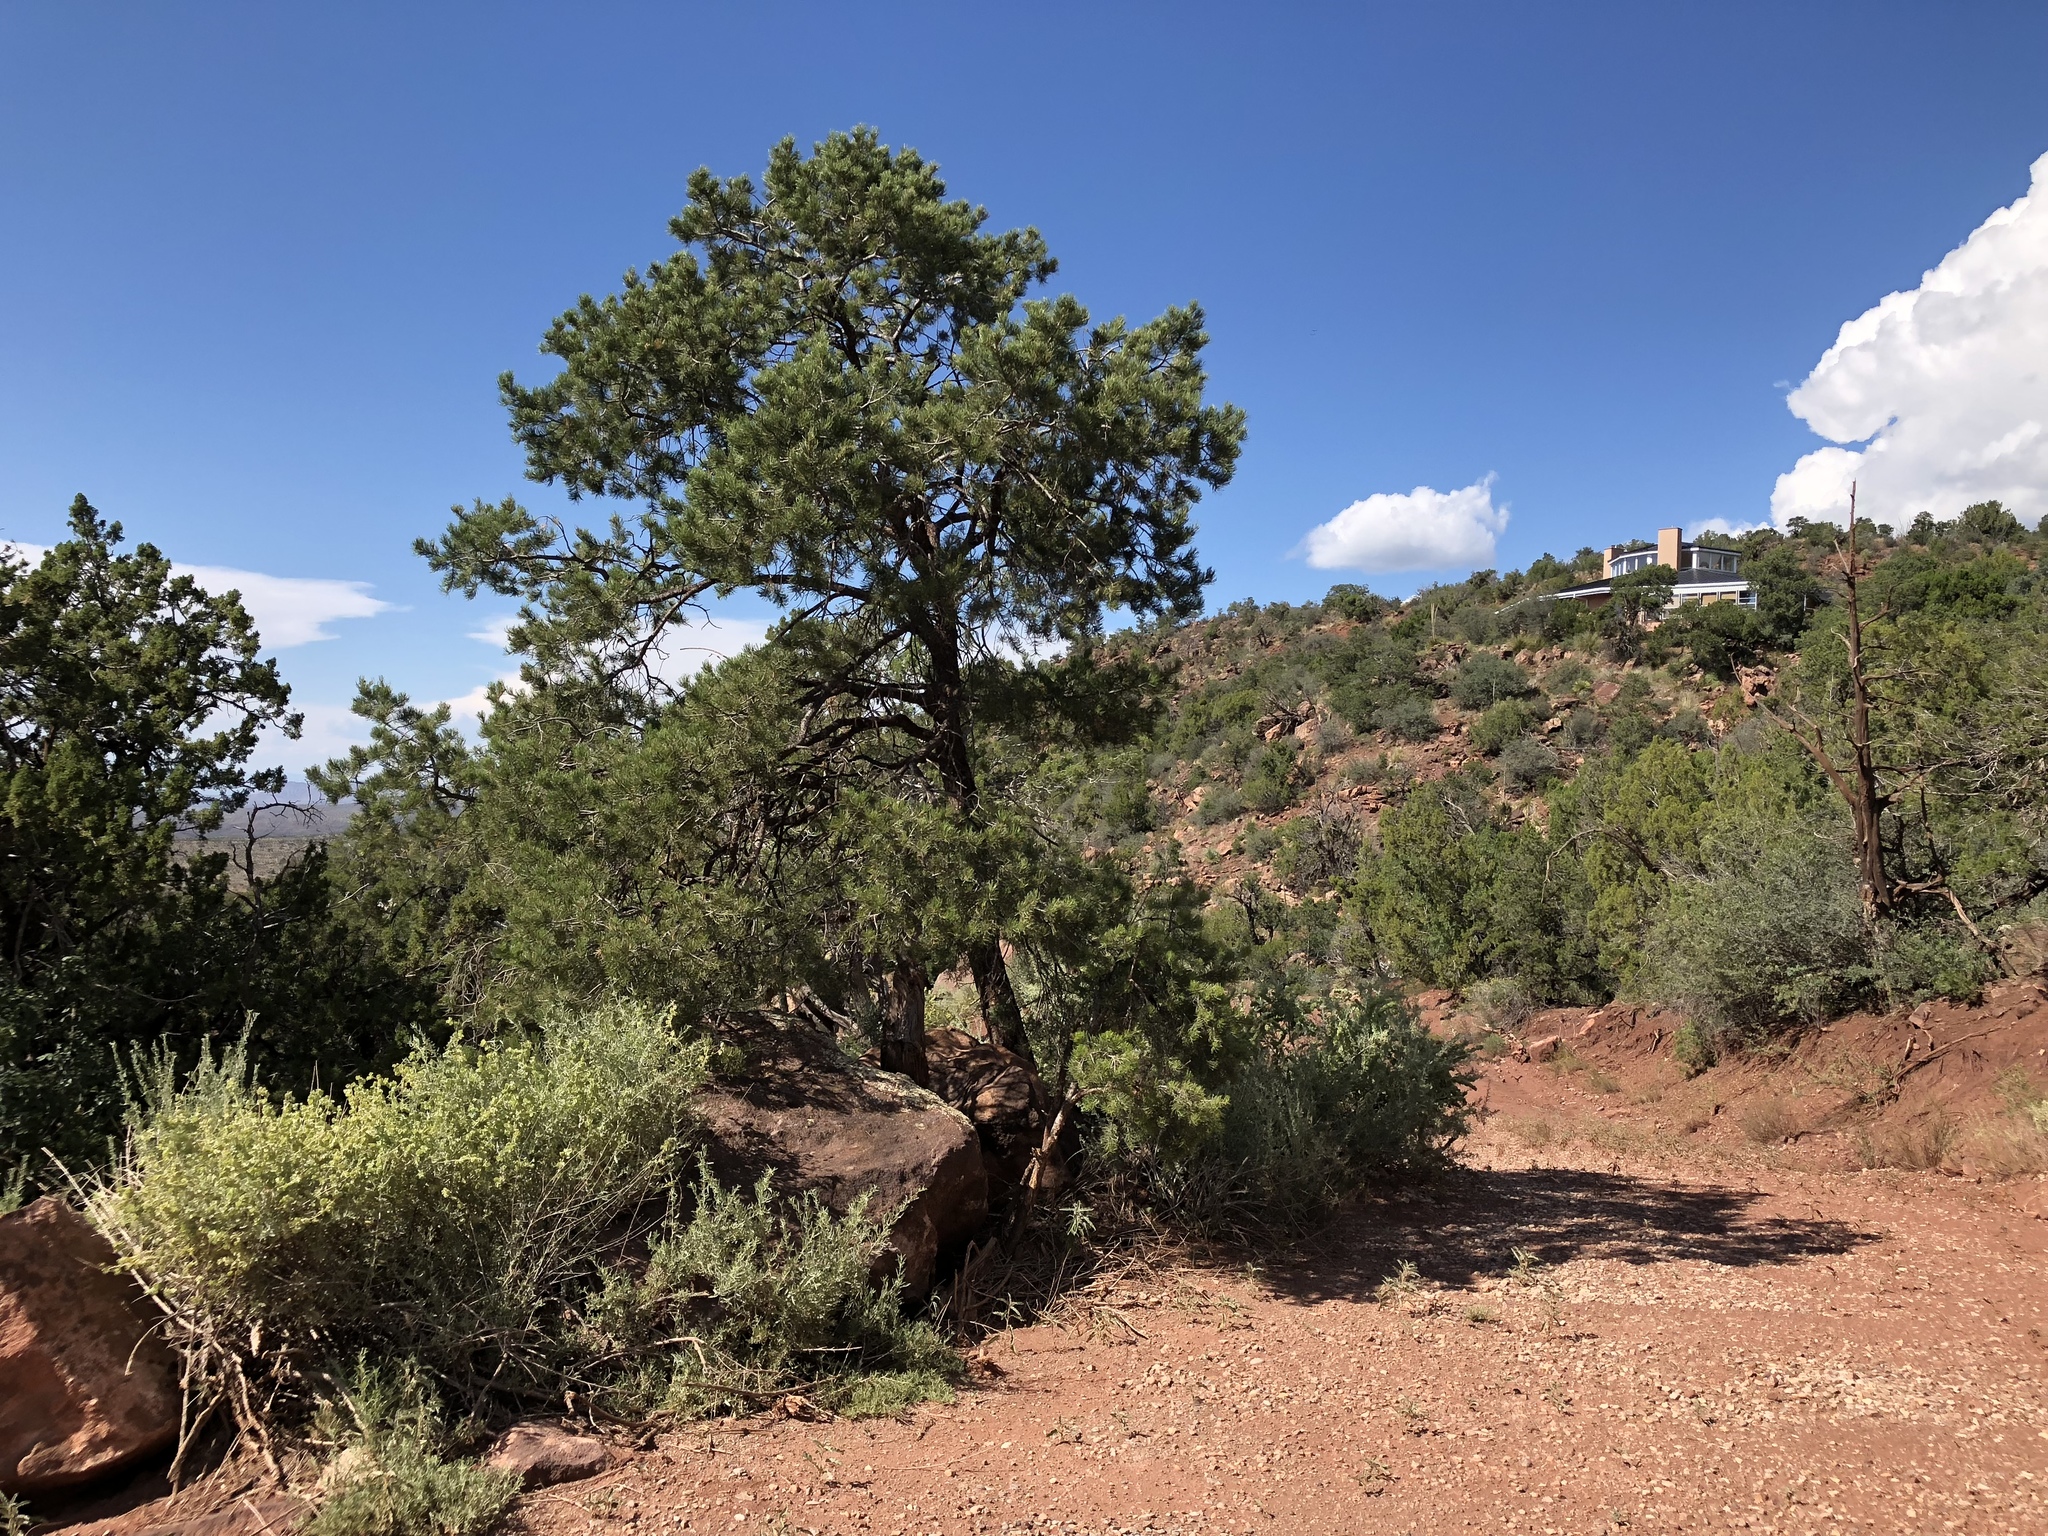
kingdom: Plantae
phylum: Tracheophyta
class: Pinopsida
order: Pinales
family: Pinaceae
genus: Pinus
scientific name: Pinus edulis
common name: Colorado pinyon
